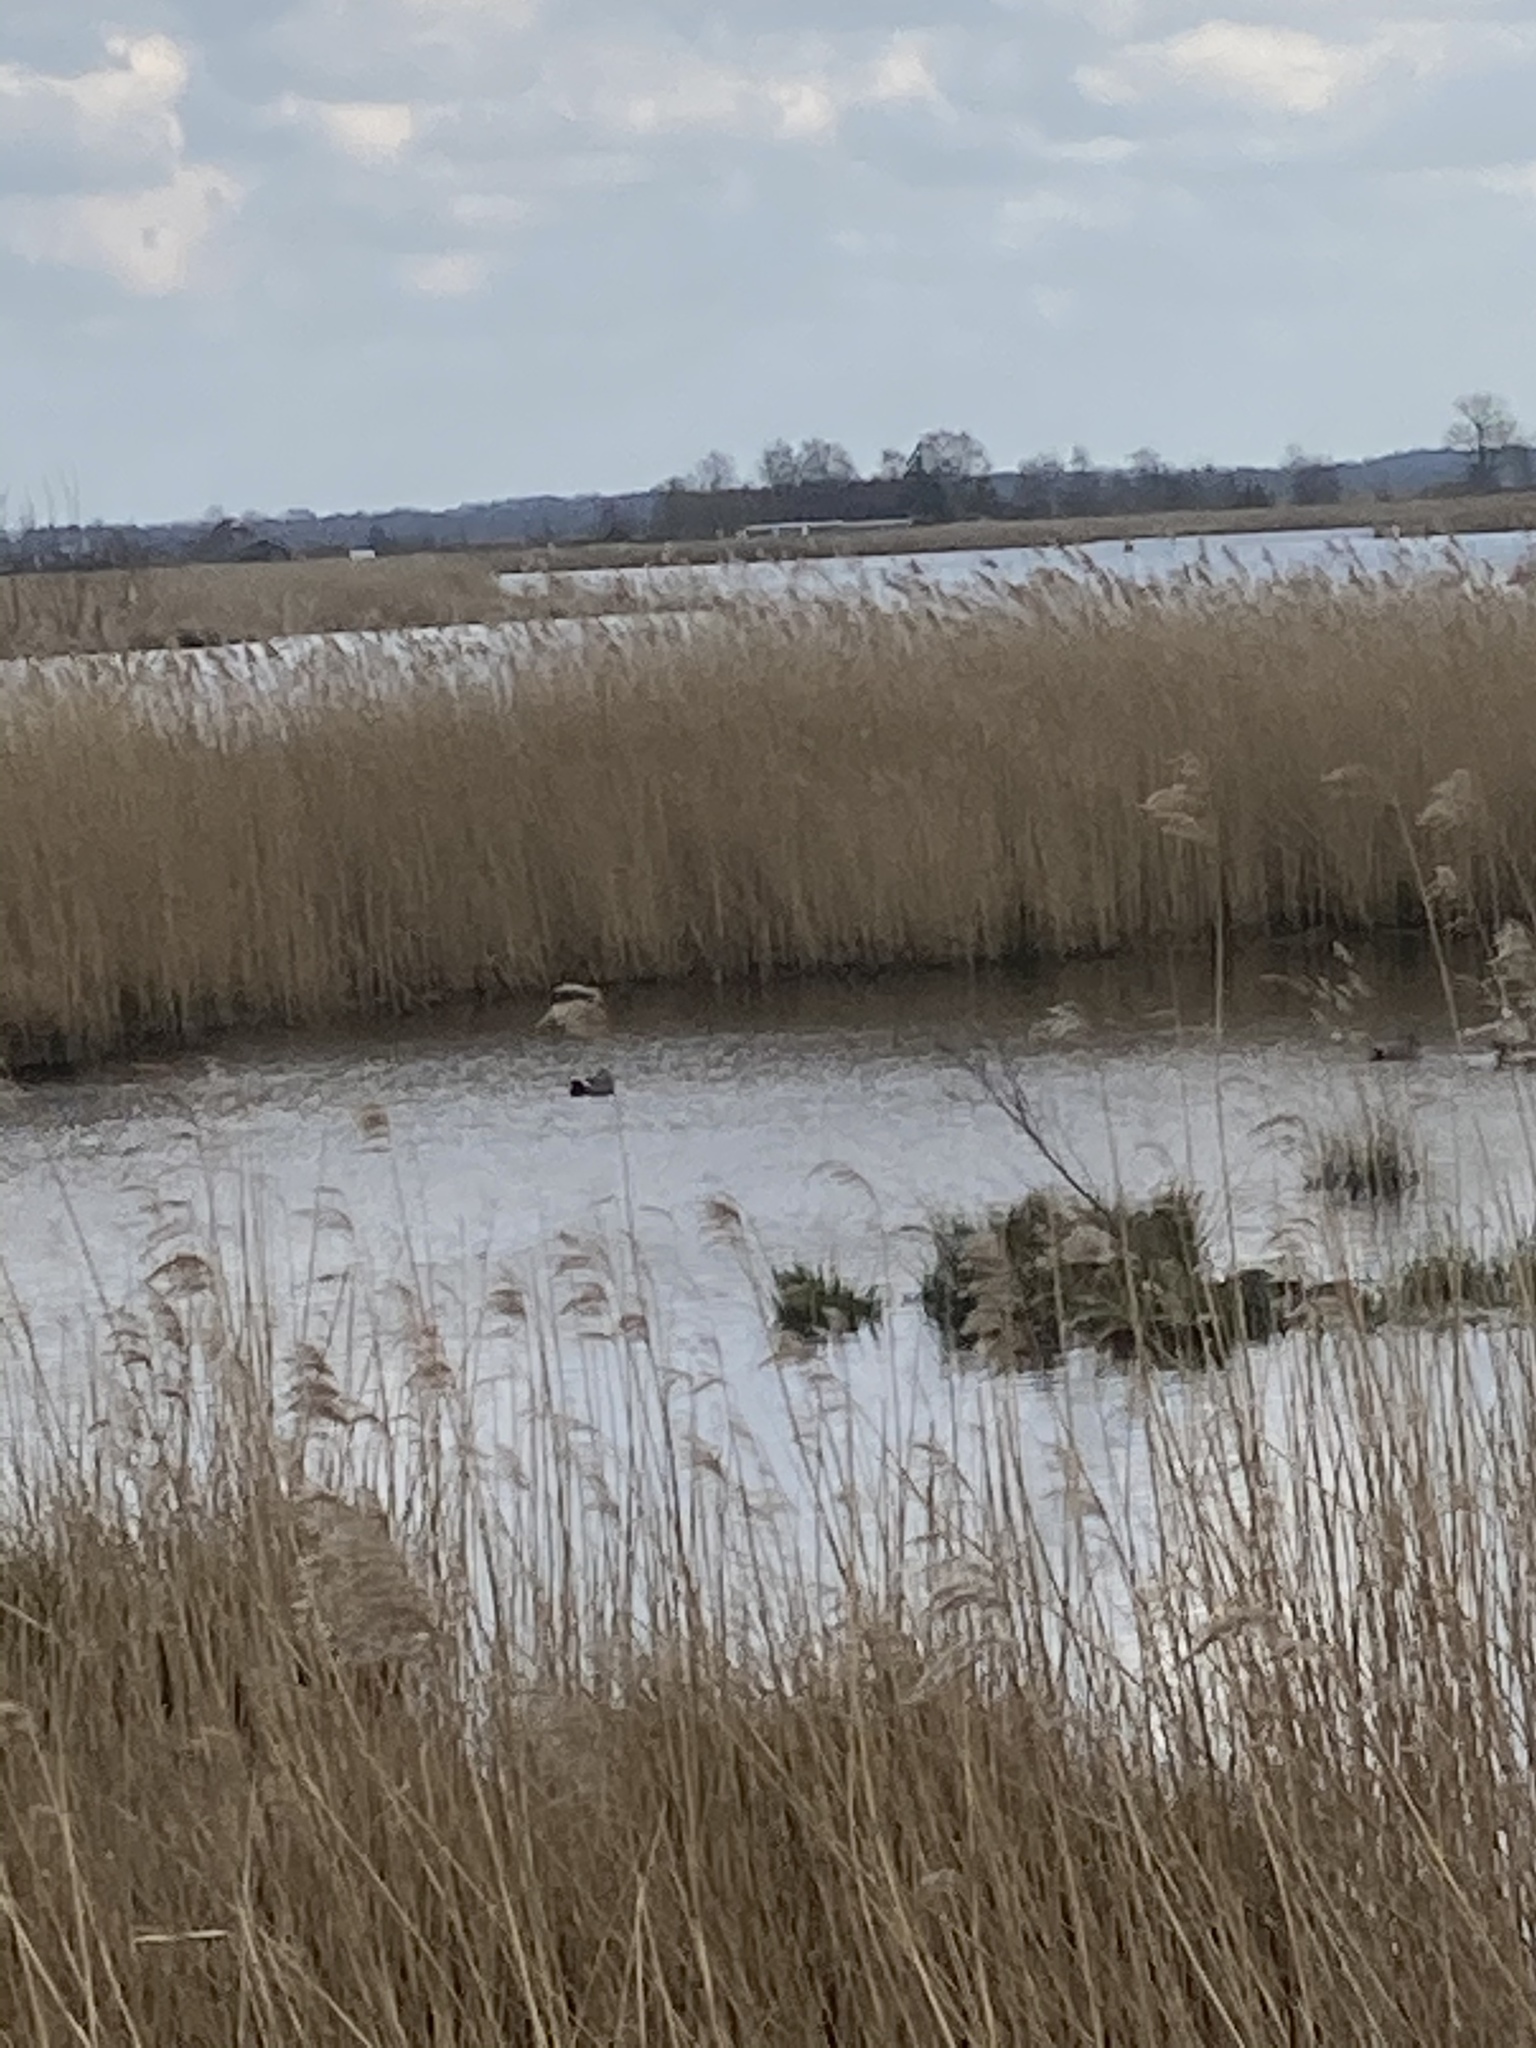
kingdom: Animalia
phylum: Chordata
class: Aves
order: Anseriformes
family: Anatidae
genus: Mareca
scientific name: Mareca strepera
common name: Gadwall
